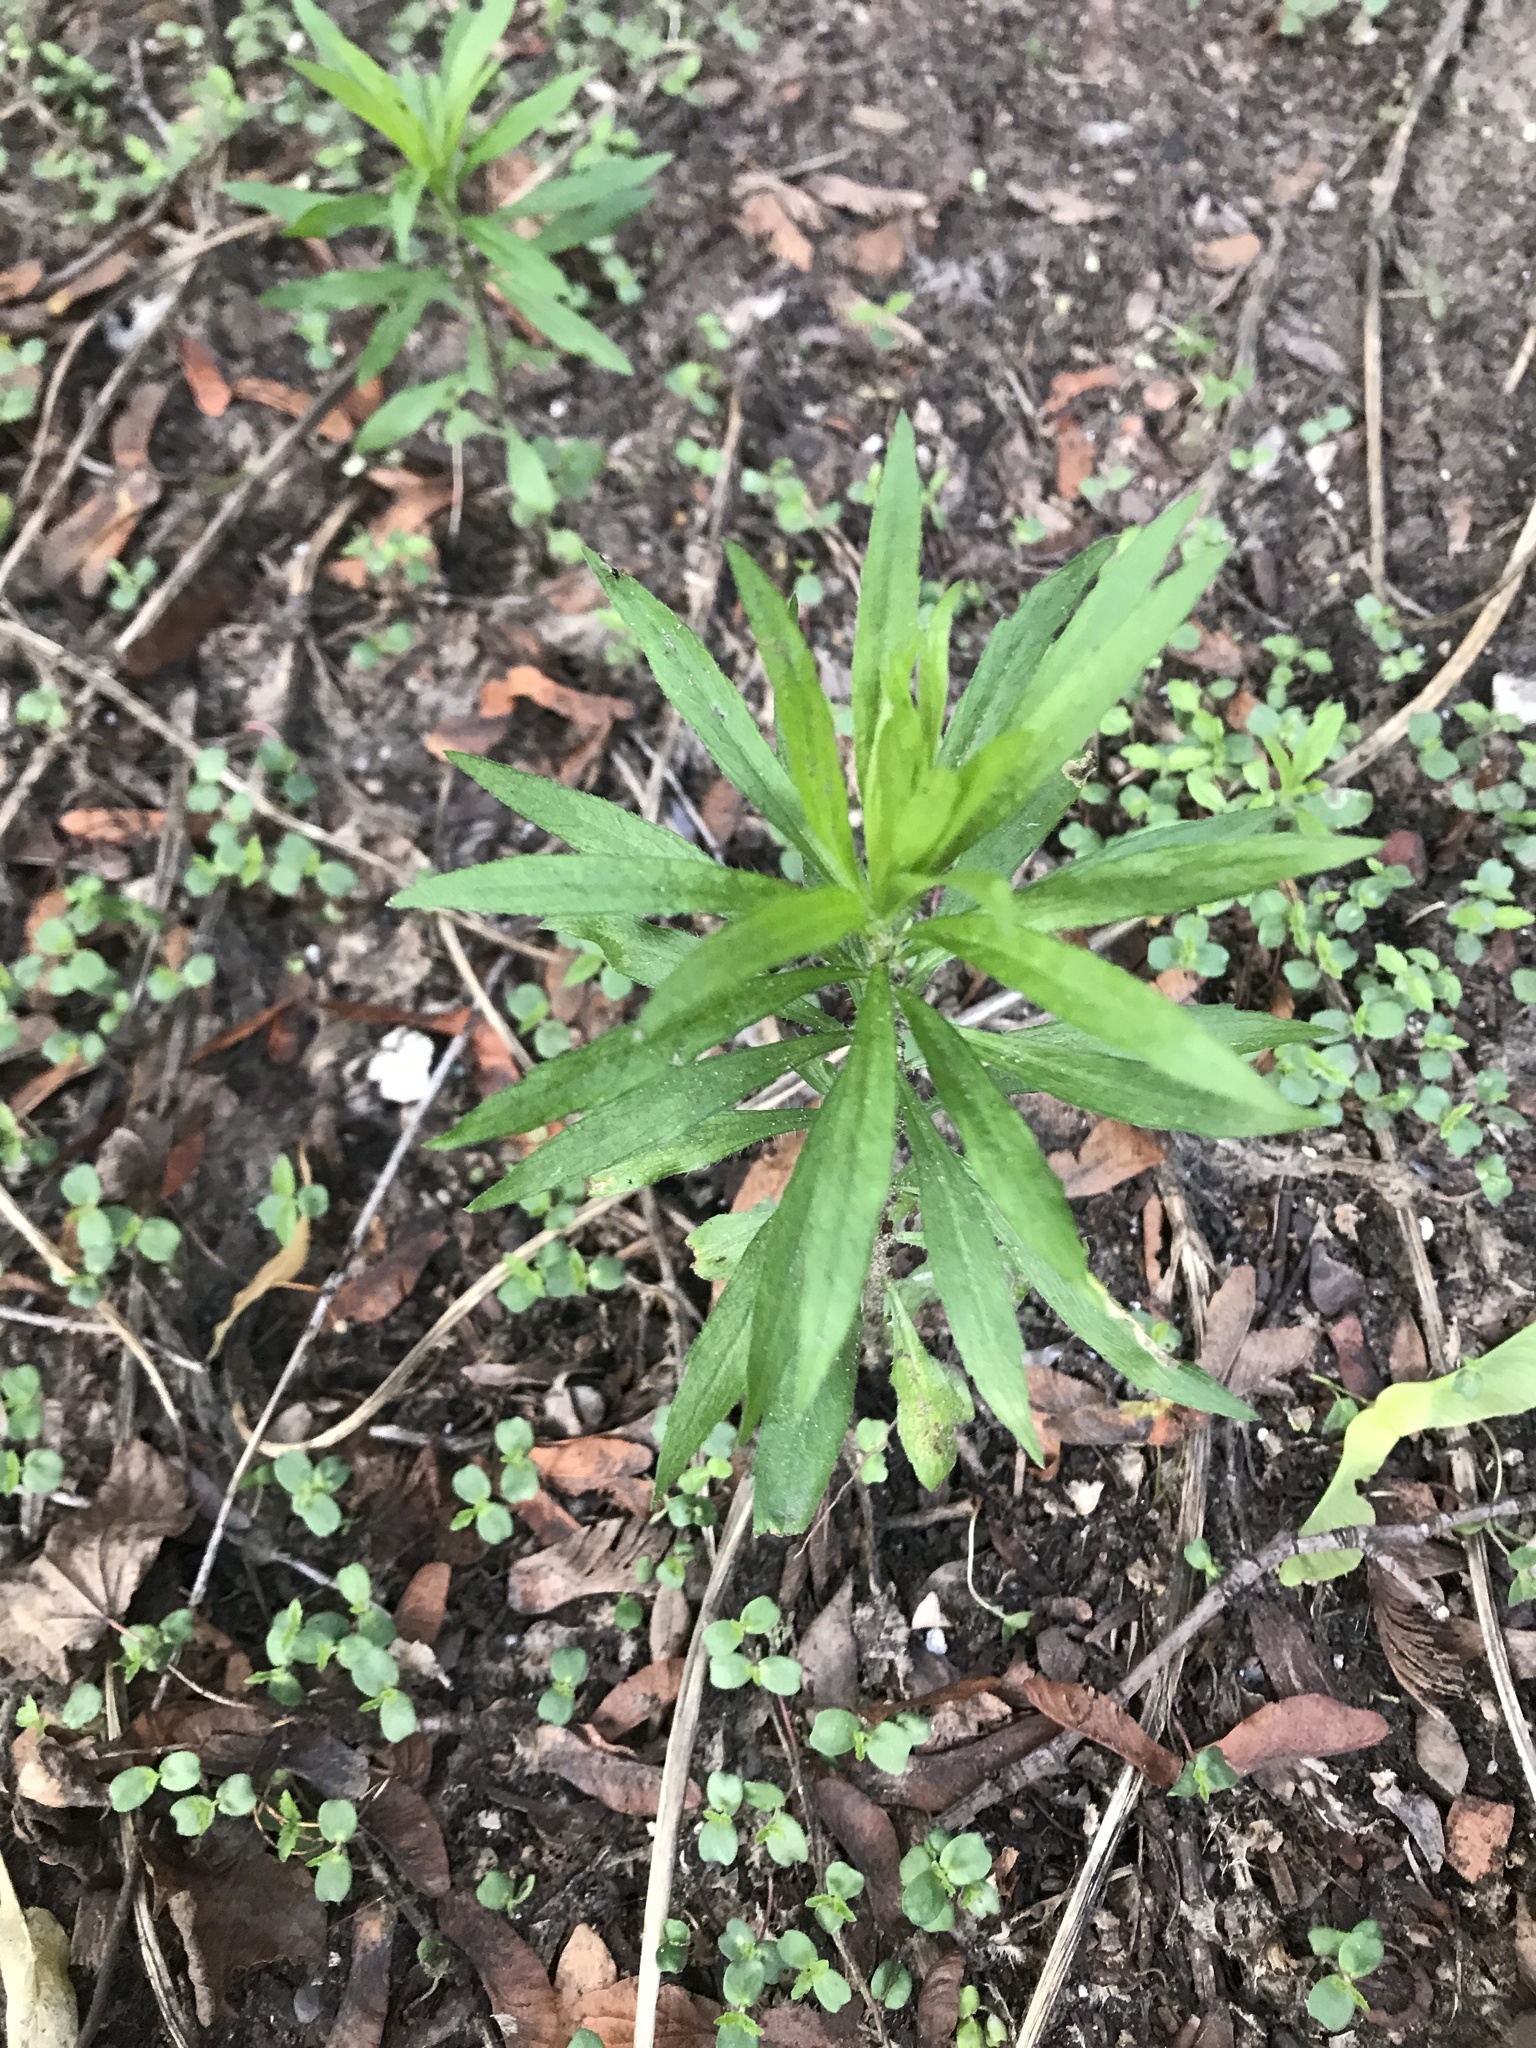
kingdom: Plantae
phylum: Tracheophyta
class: Magnoliopsida
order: Asterales
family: Asteraceae
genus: Erigeron
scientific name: Erigeron canadensis
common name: Canadian fleabane
